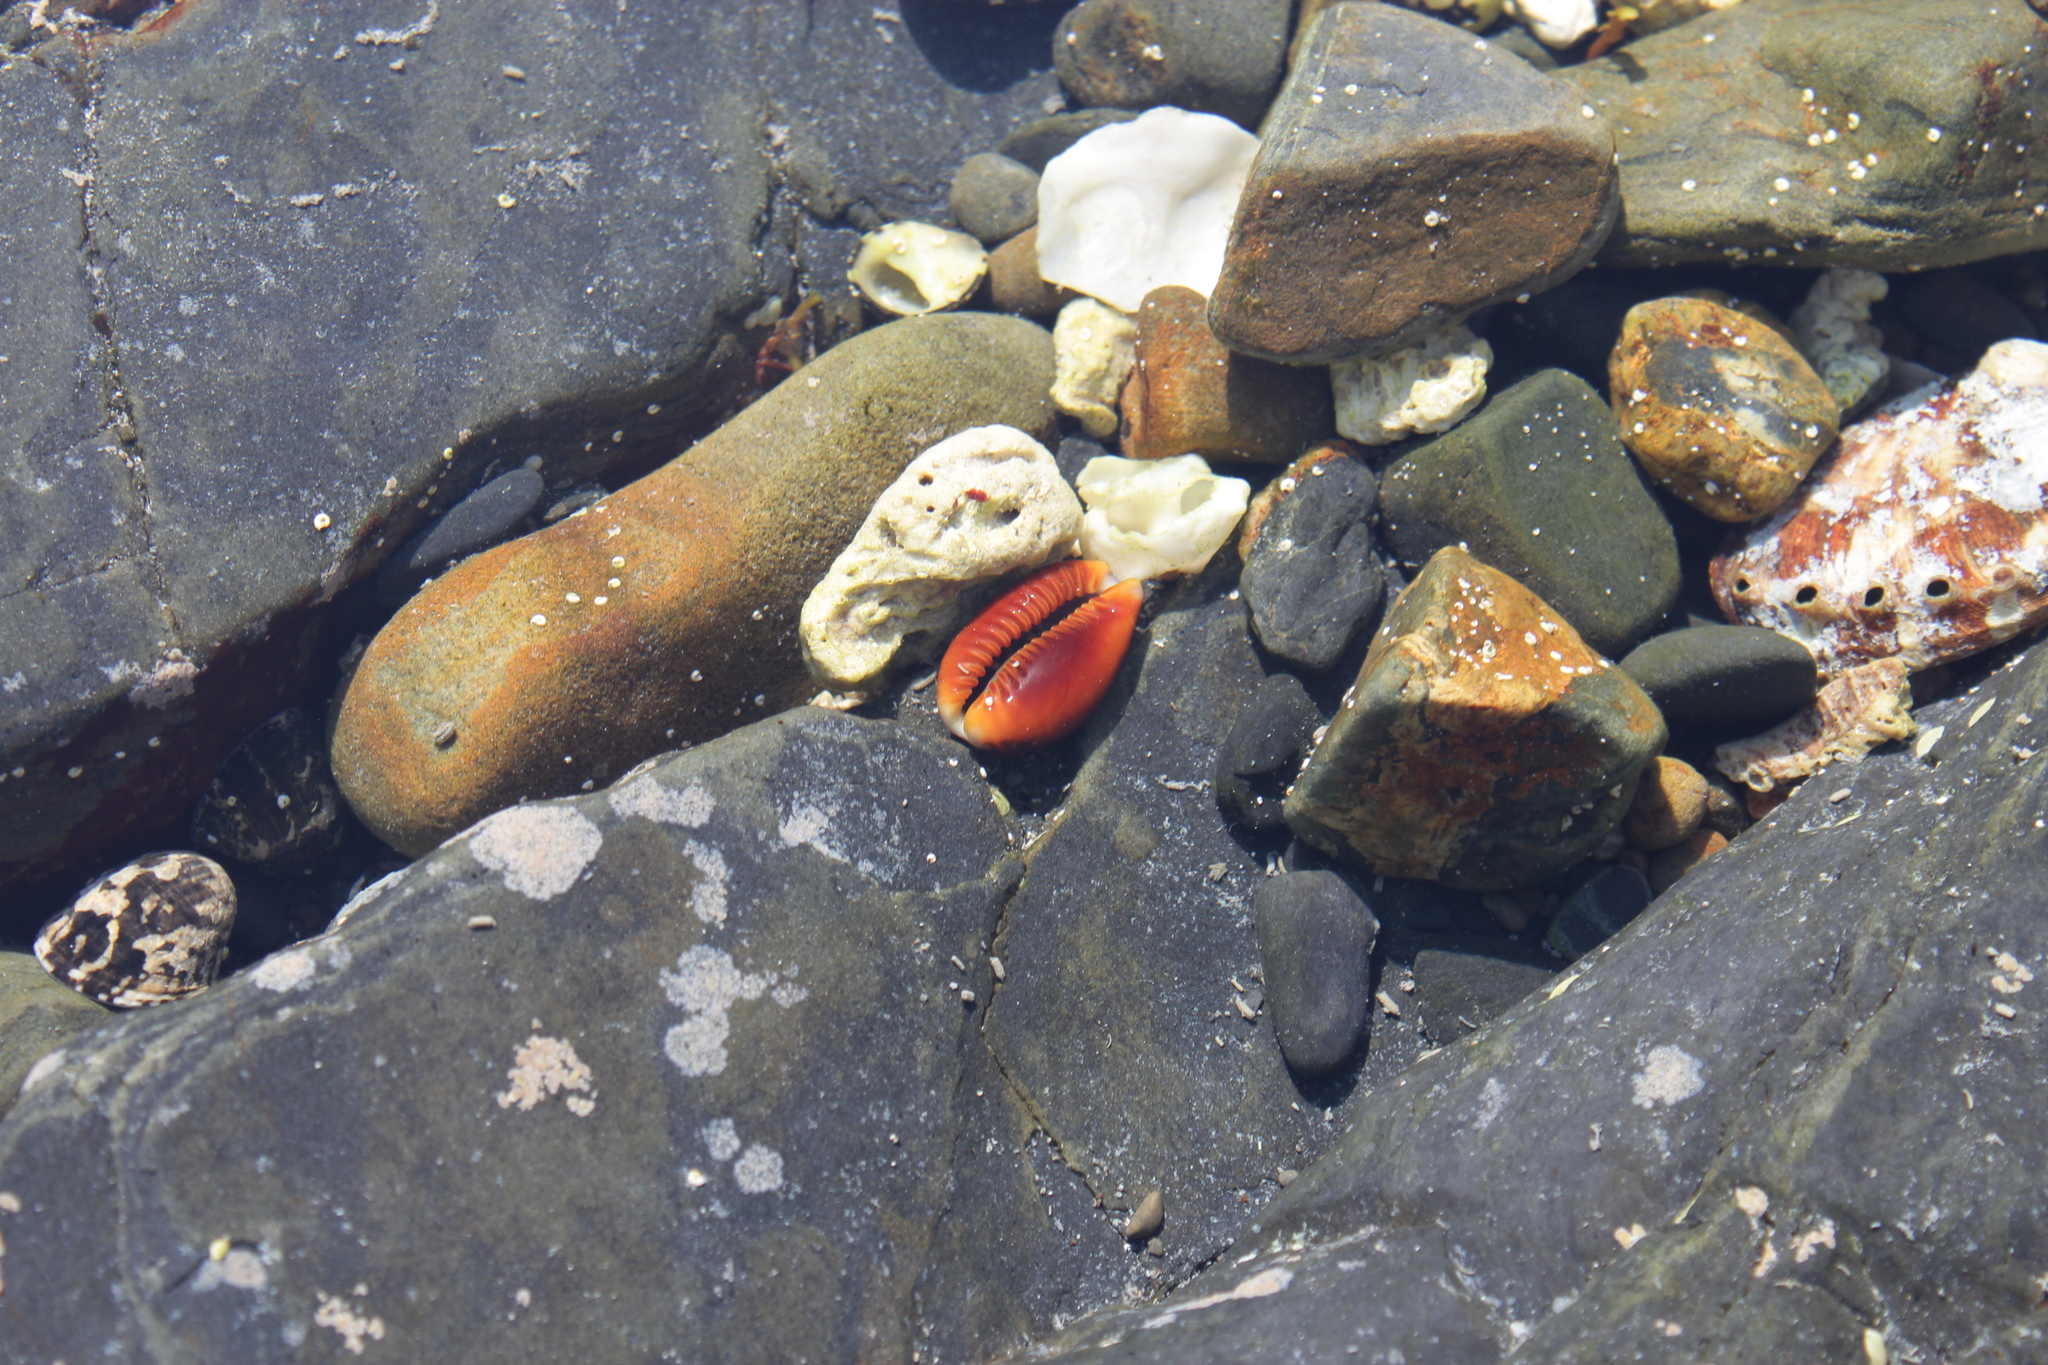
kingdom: Animalia
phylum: Mollusca
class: Gastropoda
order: Littorinimorpha
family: Cypraeidae
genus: Naria
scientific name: Naria helvola
